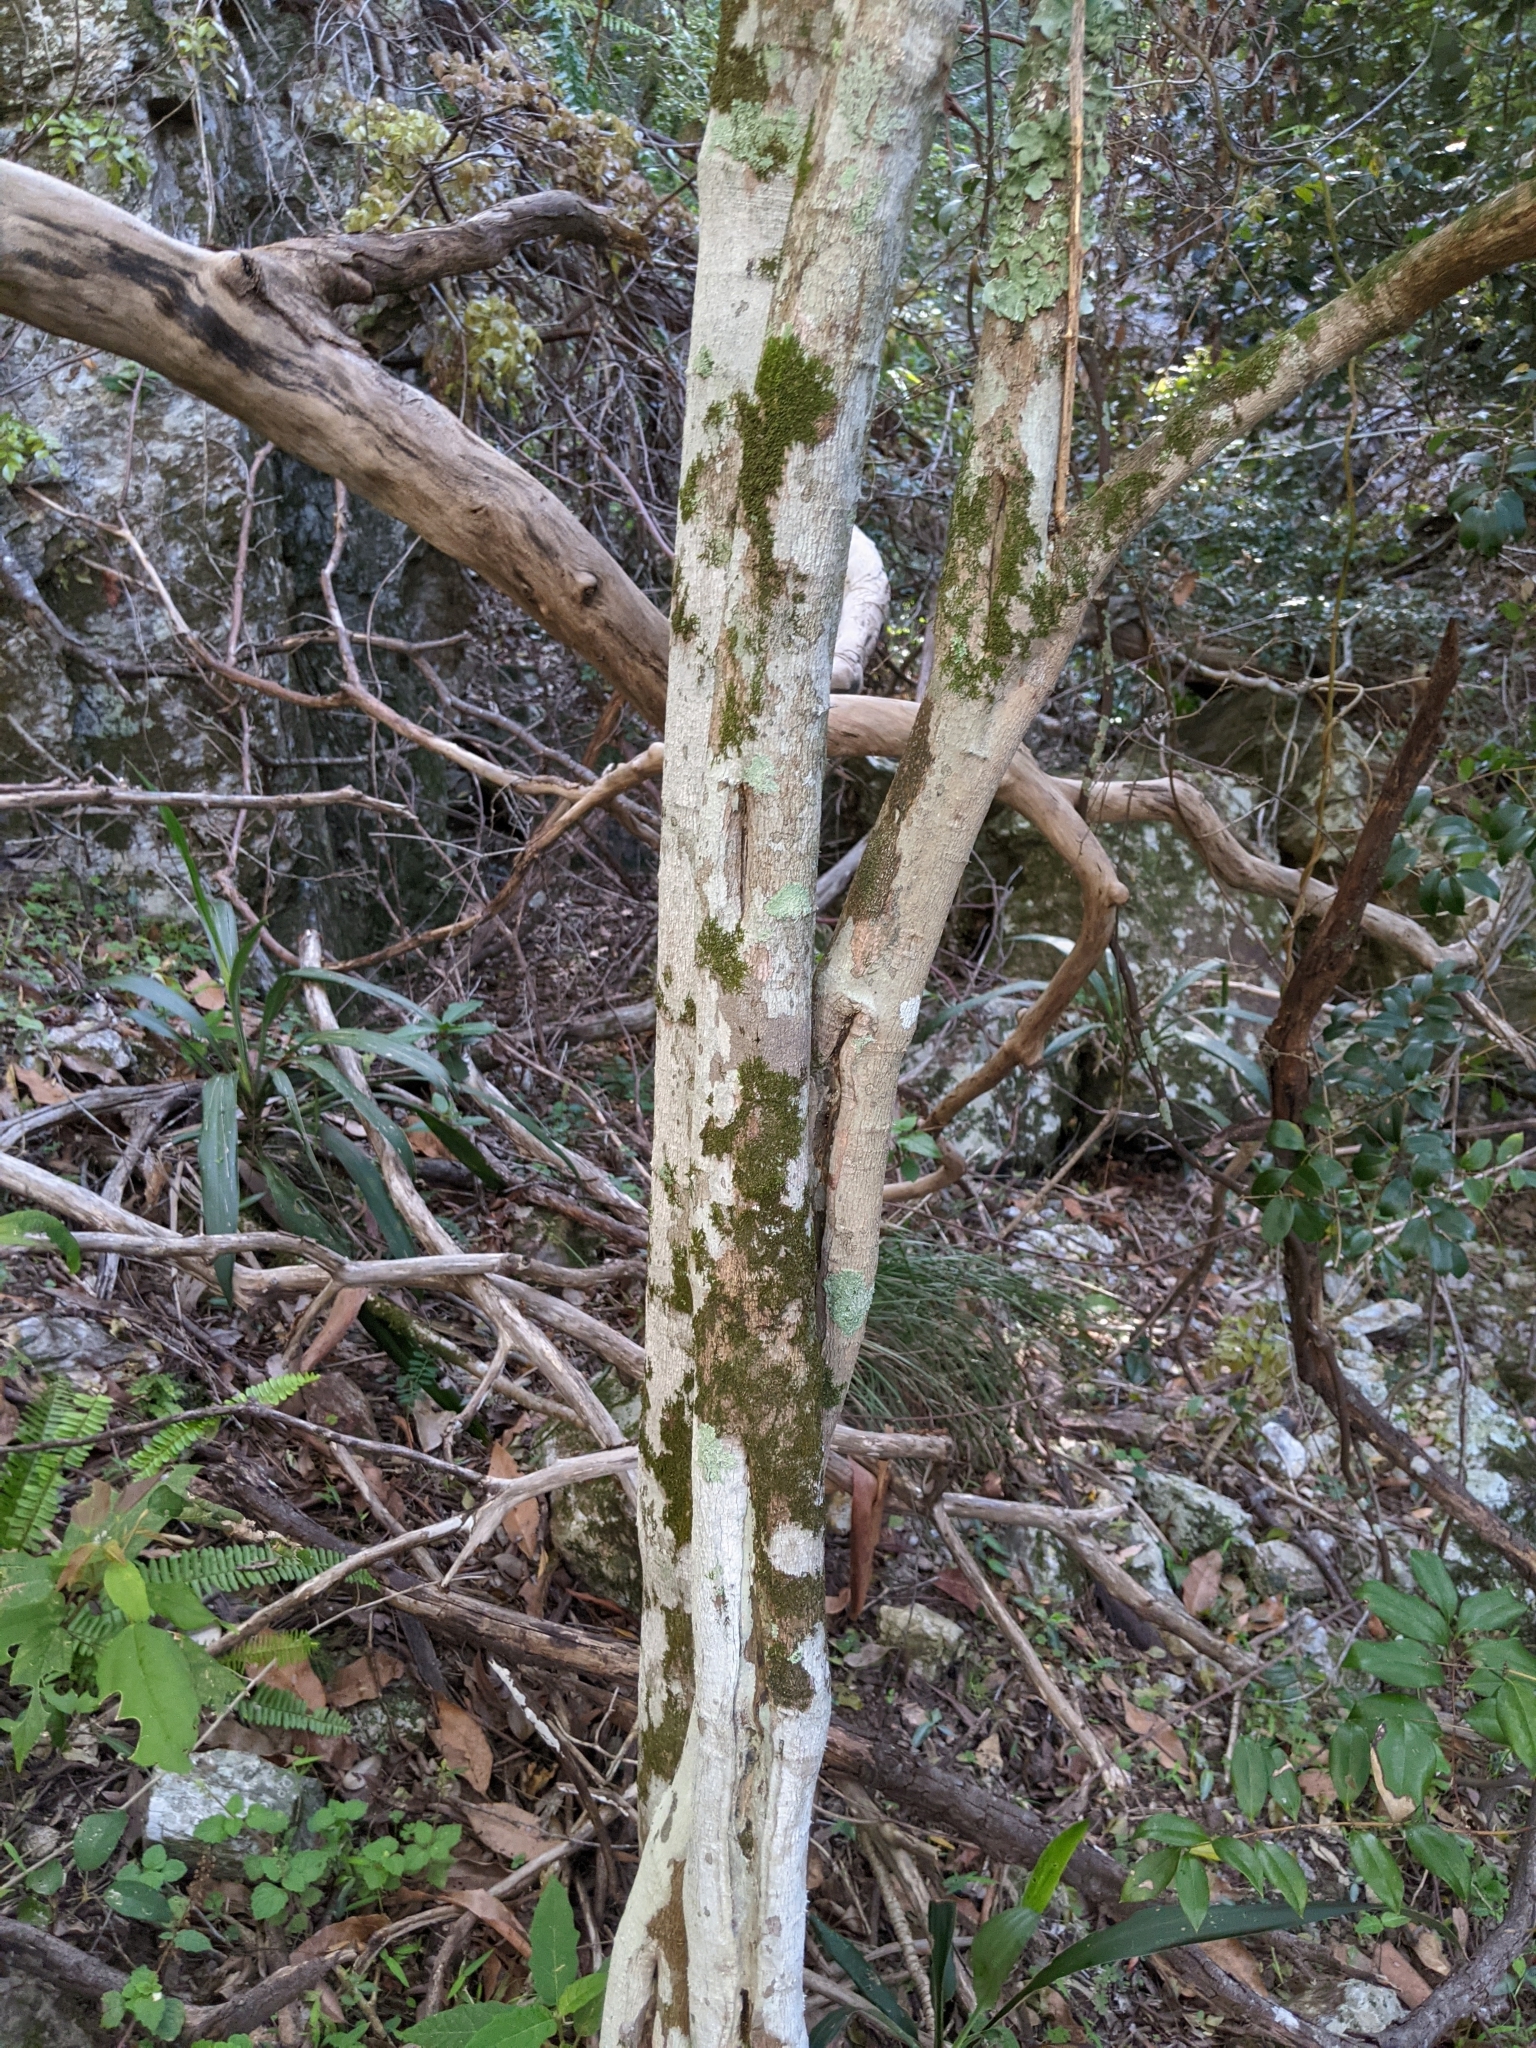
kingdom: Plantae
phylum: Tracheophyta
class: Magnoliopsida
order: Brassicales
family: Capparaceae
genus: Capparis
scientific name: Capparis arborea
